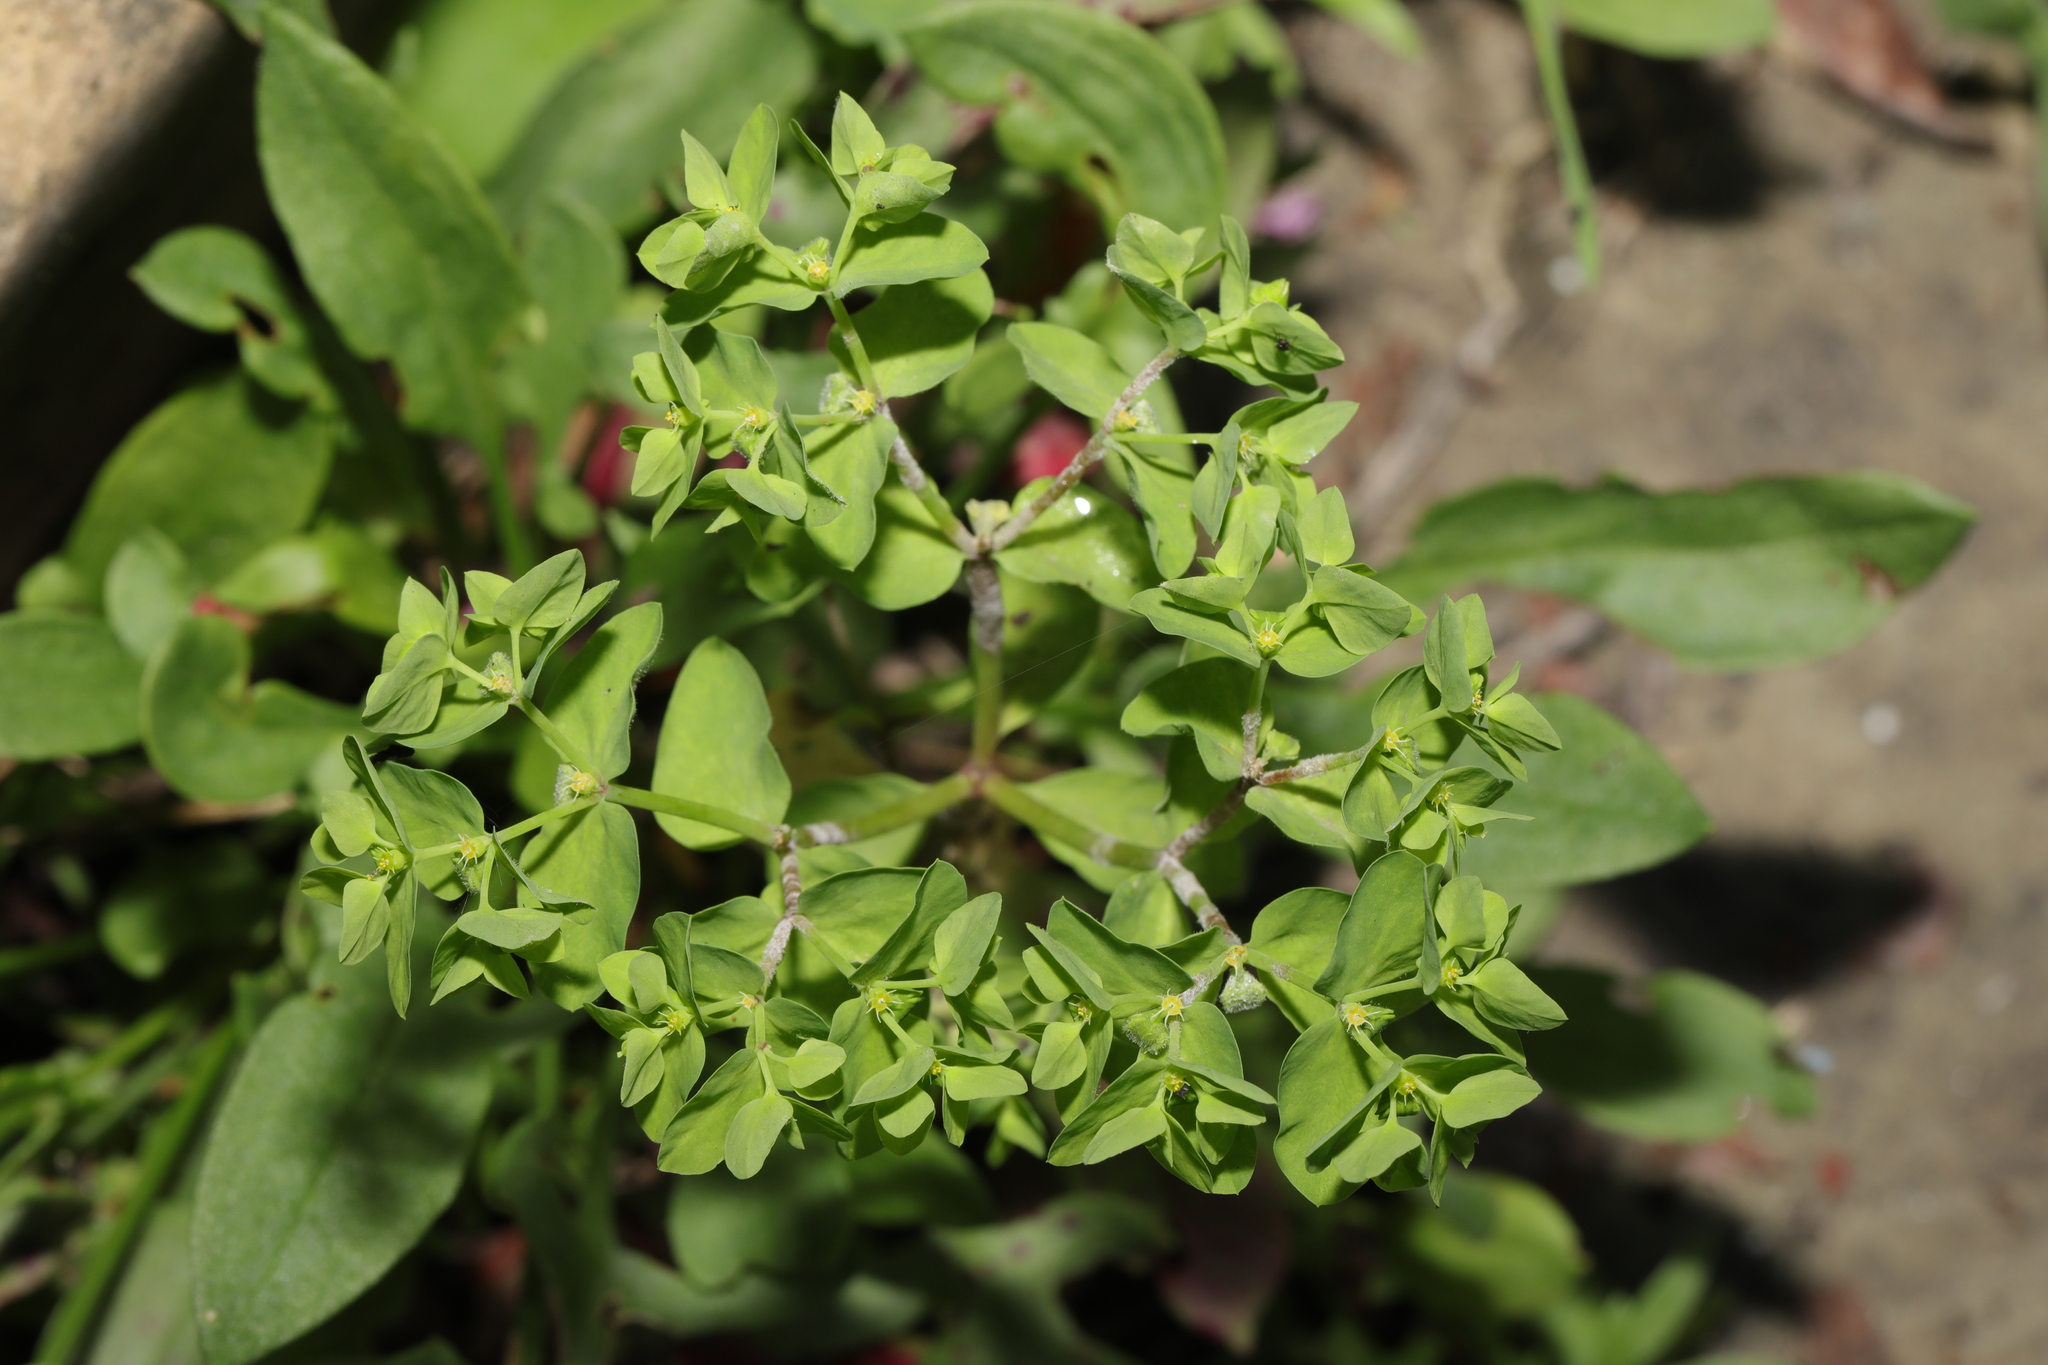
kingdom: Plantae
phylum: Tracheophyta
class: Magnoliopsida
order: Malpighiales
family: Euphorbiaceae
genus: Euphorbia
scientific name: Euphorbia peplus
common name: Petty spurge
